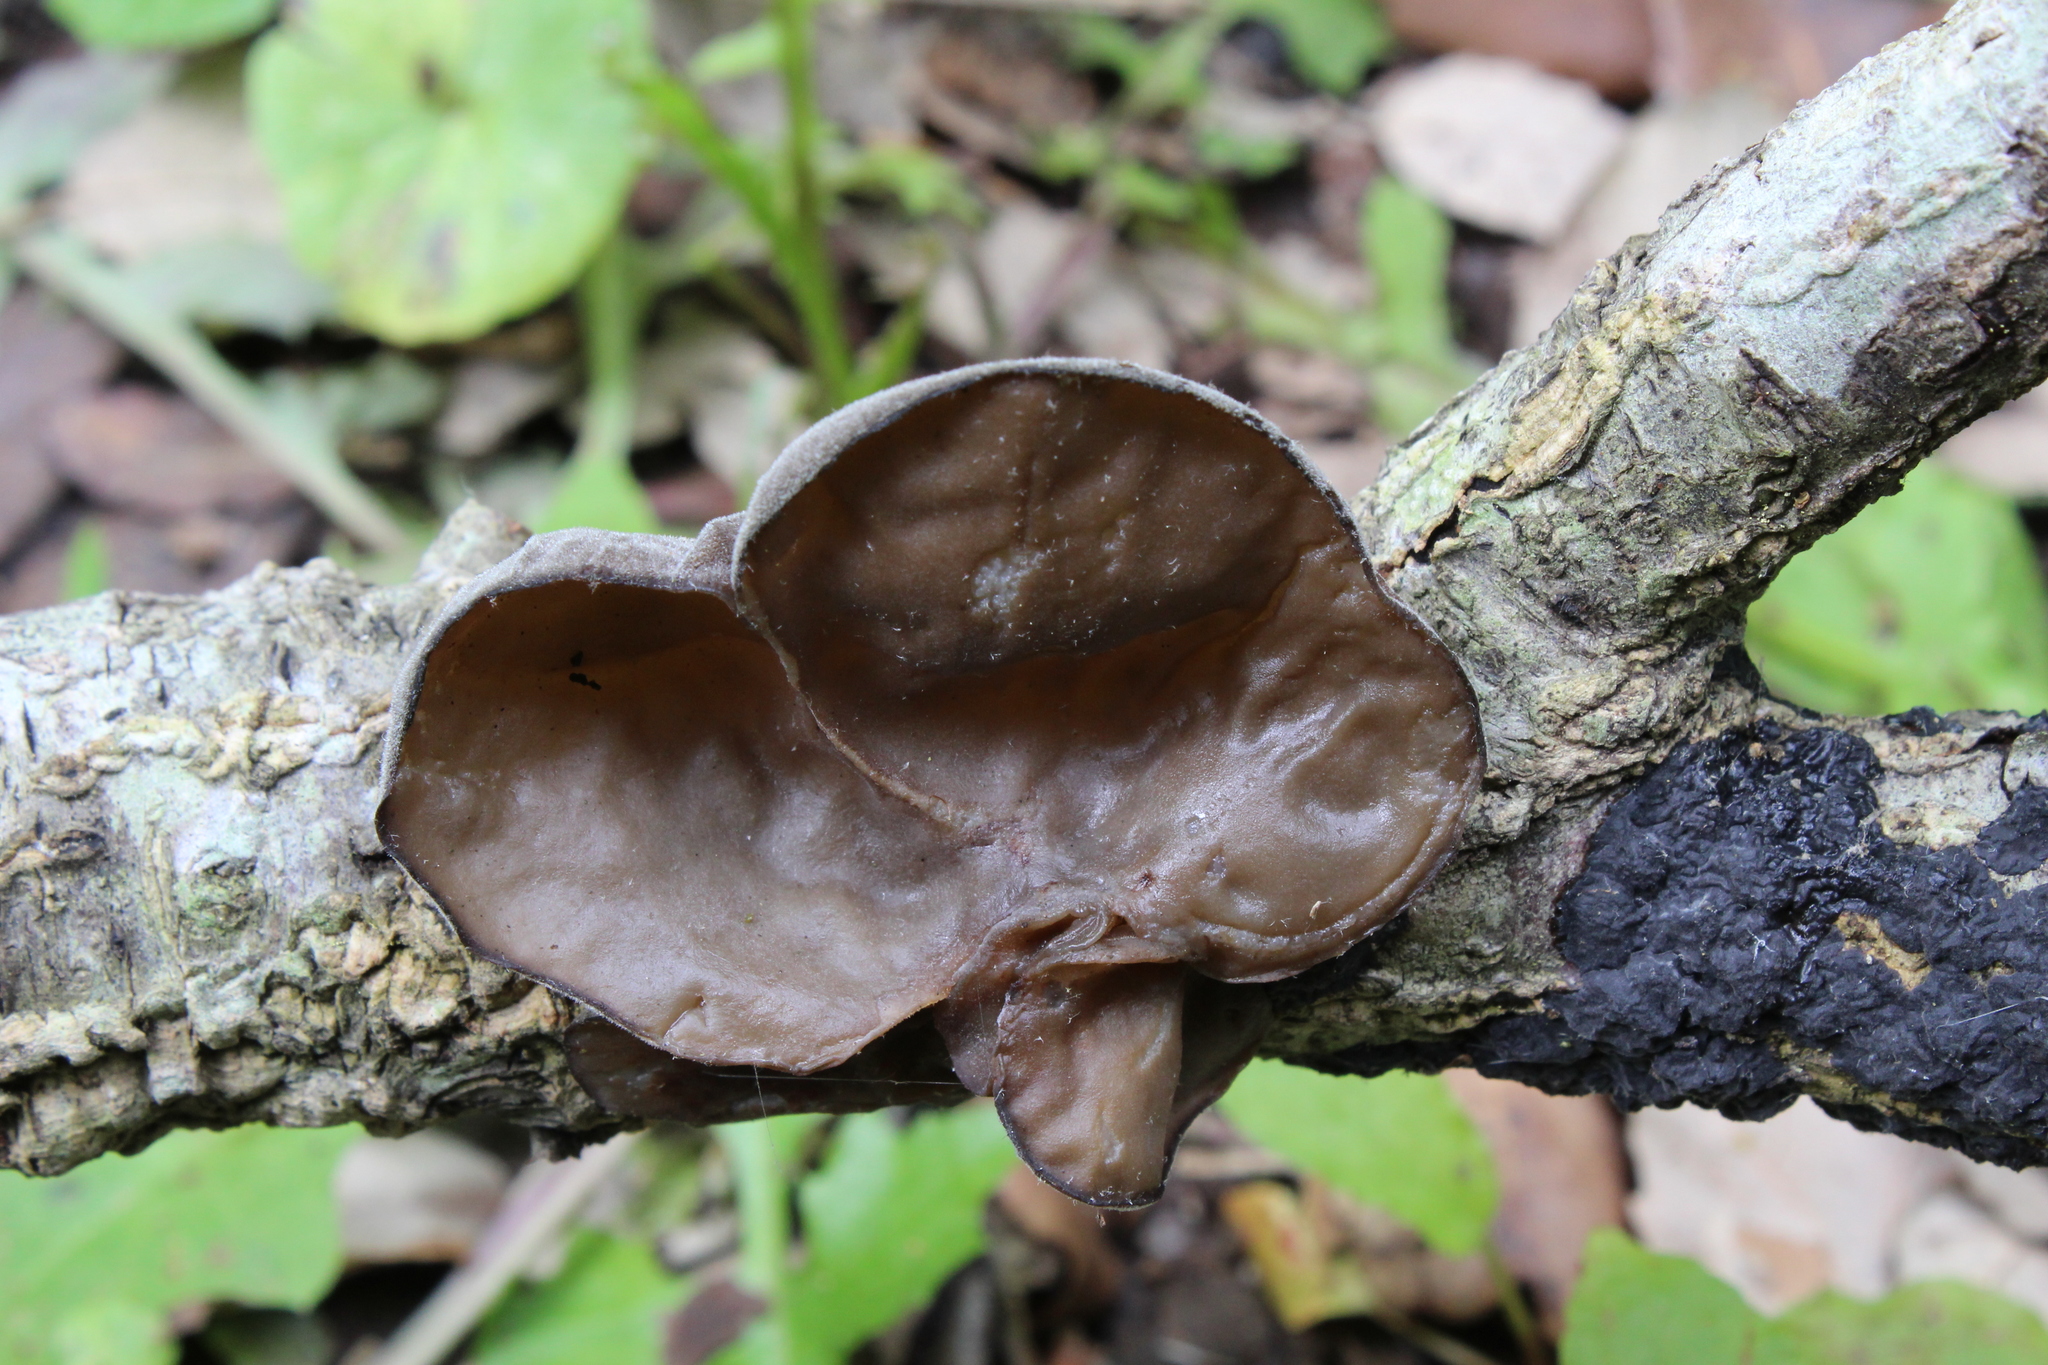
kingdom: Fungi
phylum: Basidiomycota
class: Agaricomycetes
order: Auriculariales
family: Auriculariaceae
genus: Auricularia
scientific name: Auricularia auricula-judae
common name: Jelly ear
